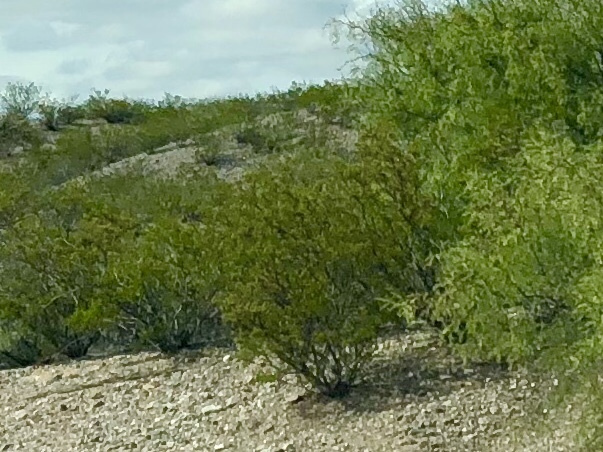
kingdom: Plantae
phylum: Tracheophyta
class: Magnoliopsida
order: Zygophyllales
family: Zygophyllaceae
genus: Larrea
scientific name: Larrea tridentata
